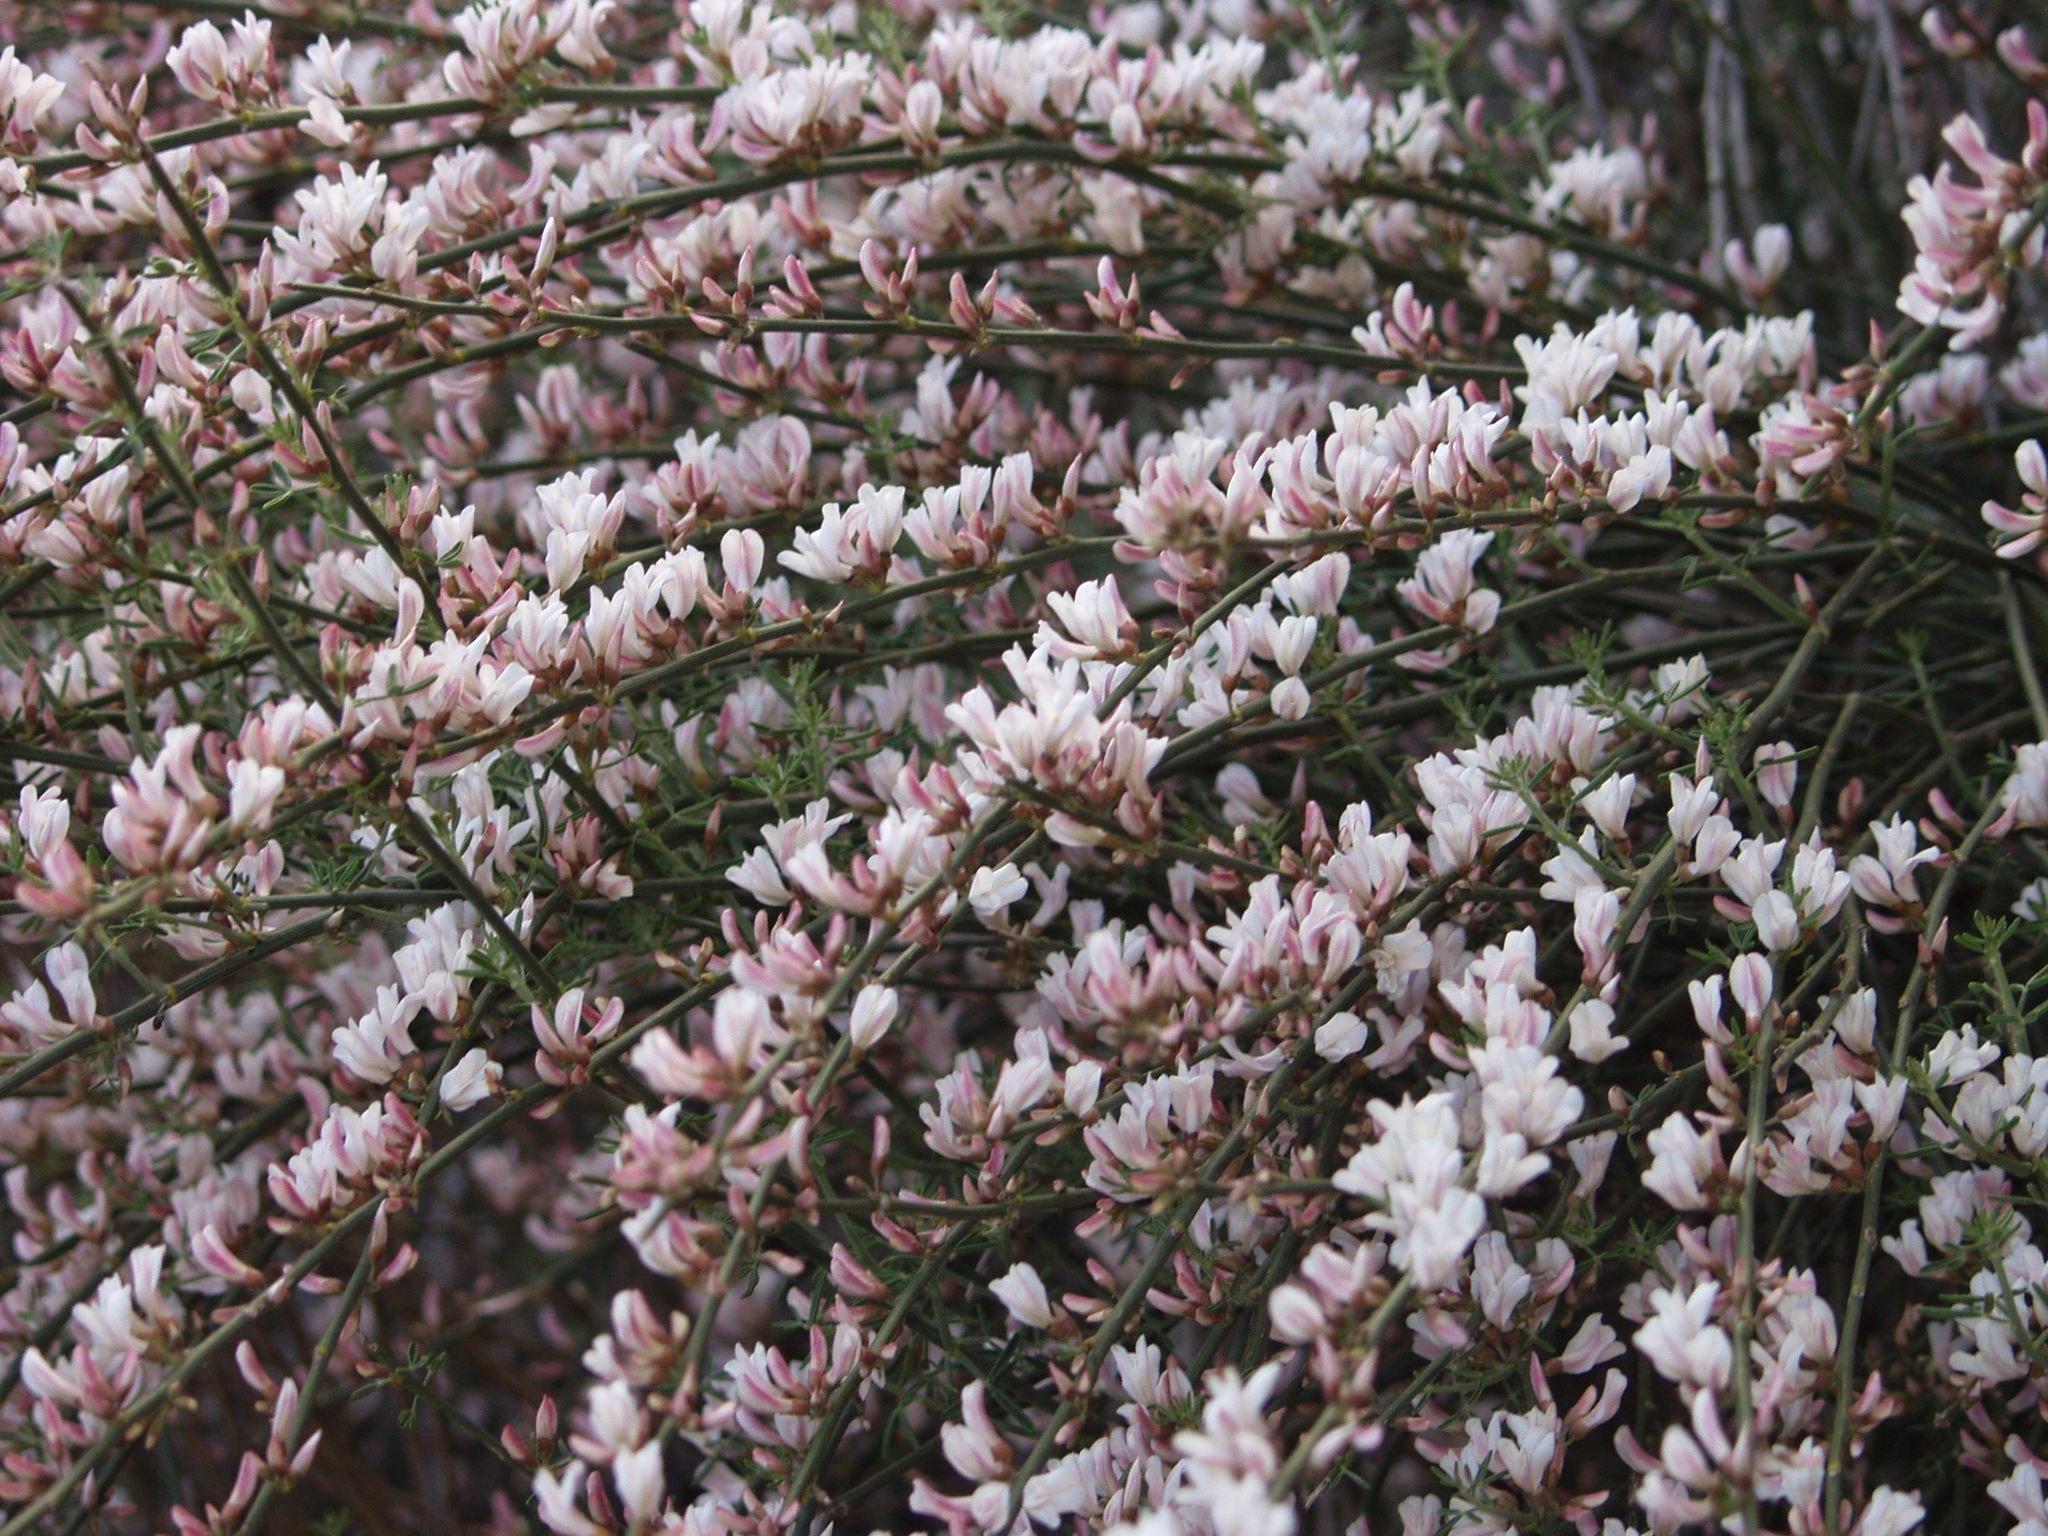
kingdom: Plantae
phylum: Tracheophyta
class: Magnoliopsida
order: Fabales
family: Fabaceae
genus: Cytisus
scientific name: Cytisus supranubius
